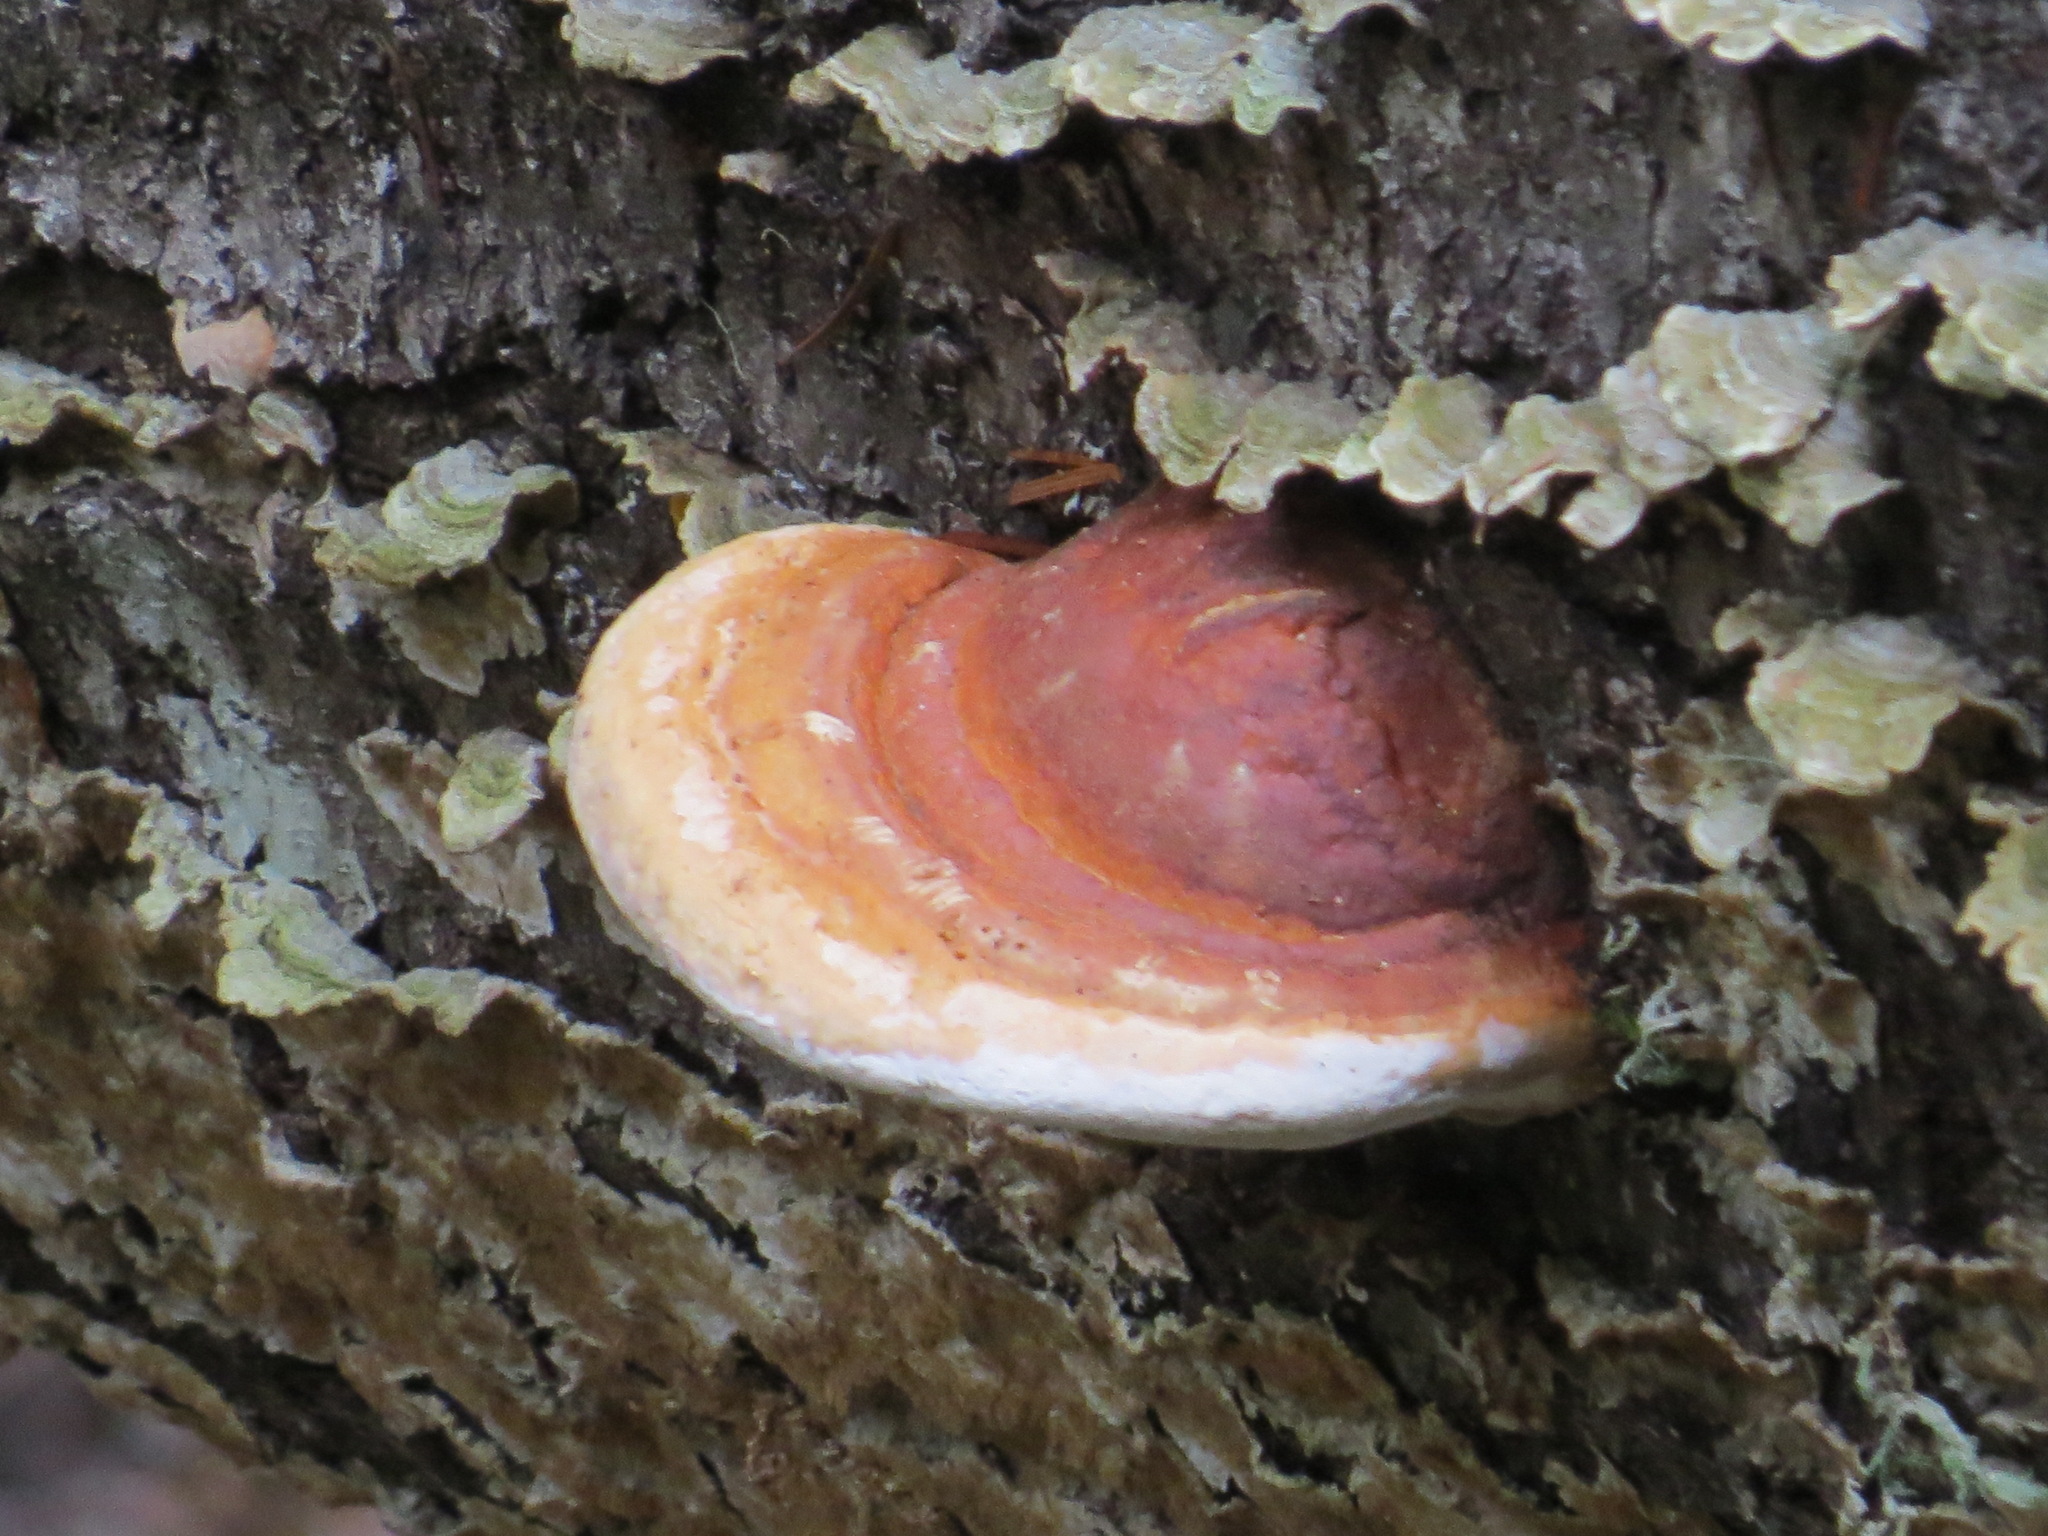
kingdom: Fungi
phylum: Basidiomycota
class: Agaricomycetes
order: Polyporales
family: Fomitopsidaceae
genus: Fomitopsis
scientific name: Fomitopsis mounceae
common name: Northern red belt
